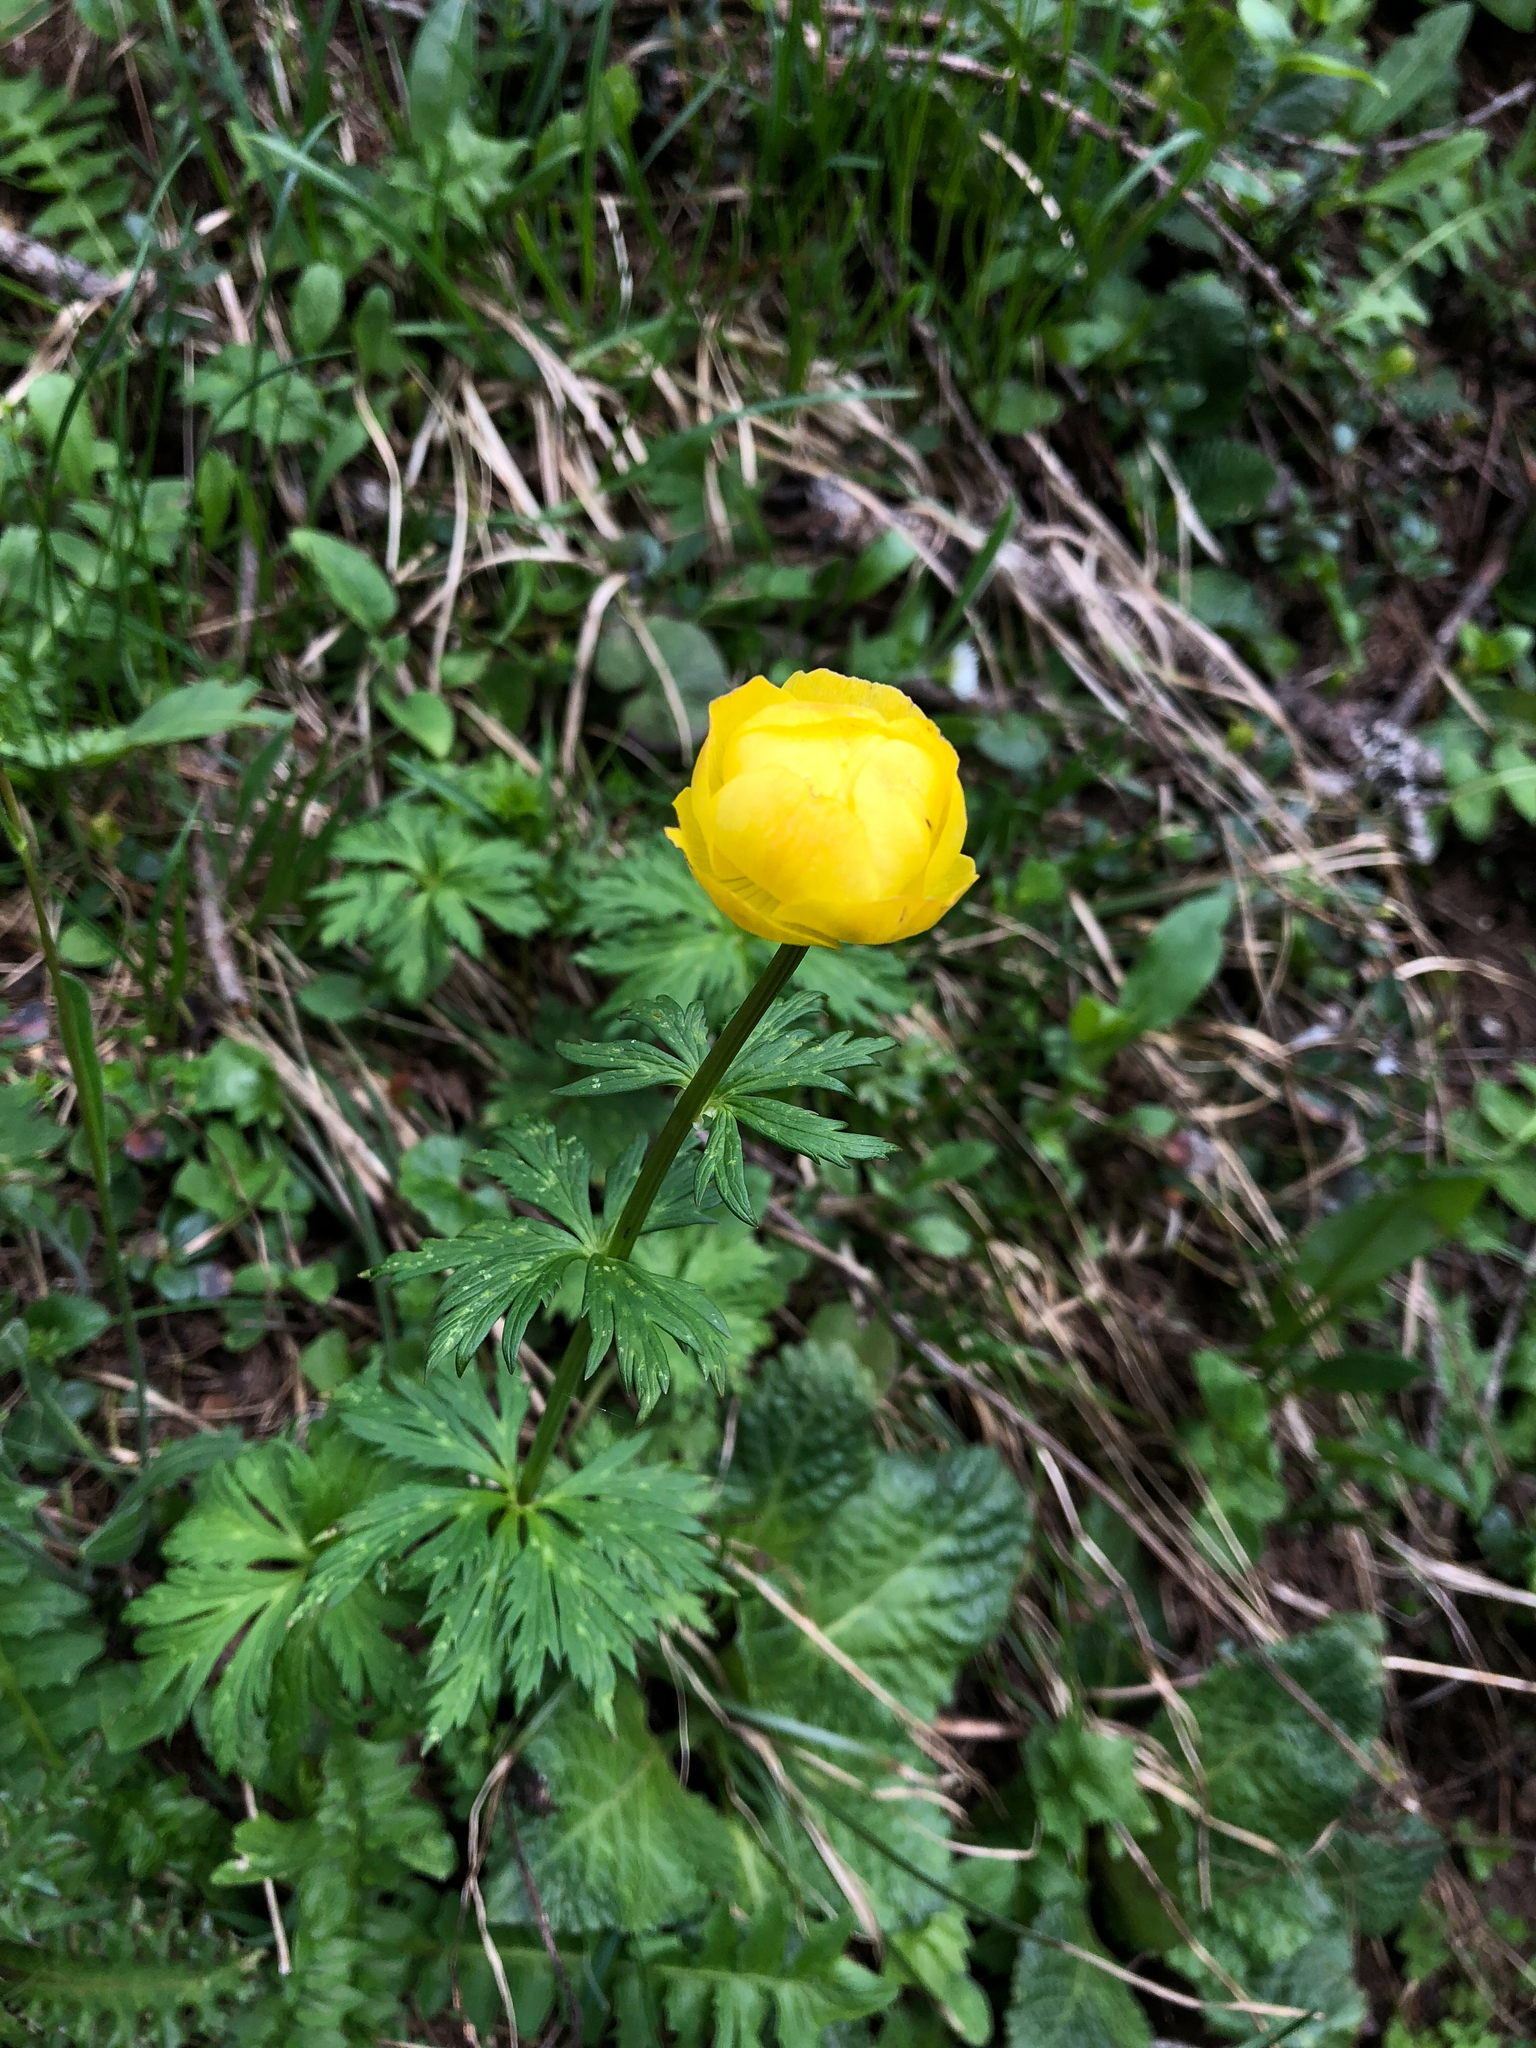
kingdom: Plantae
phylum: Tracheophyta
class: Magnoliopsida
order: Ranunculales
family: Ranunculaceae
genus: Trollius
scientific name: Trollius europaeus
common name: European globeflower
